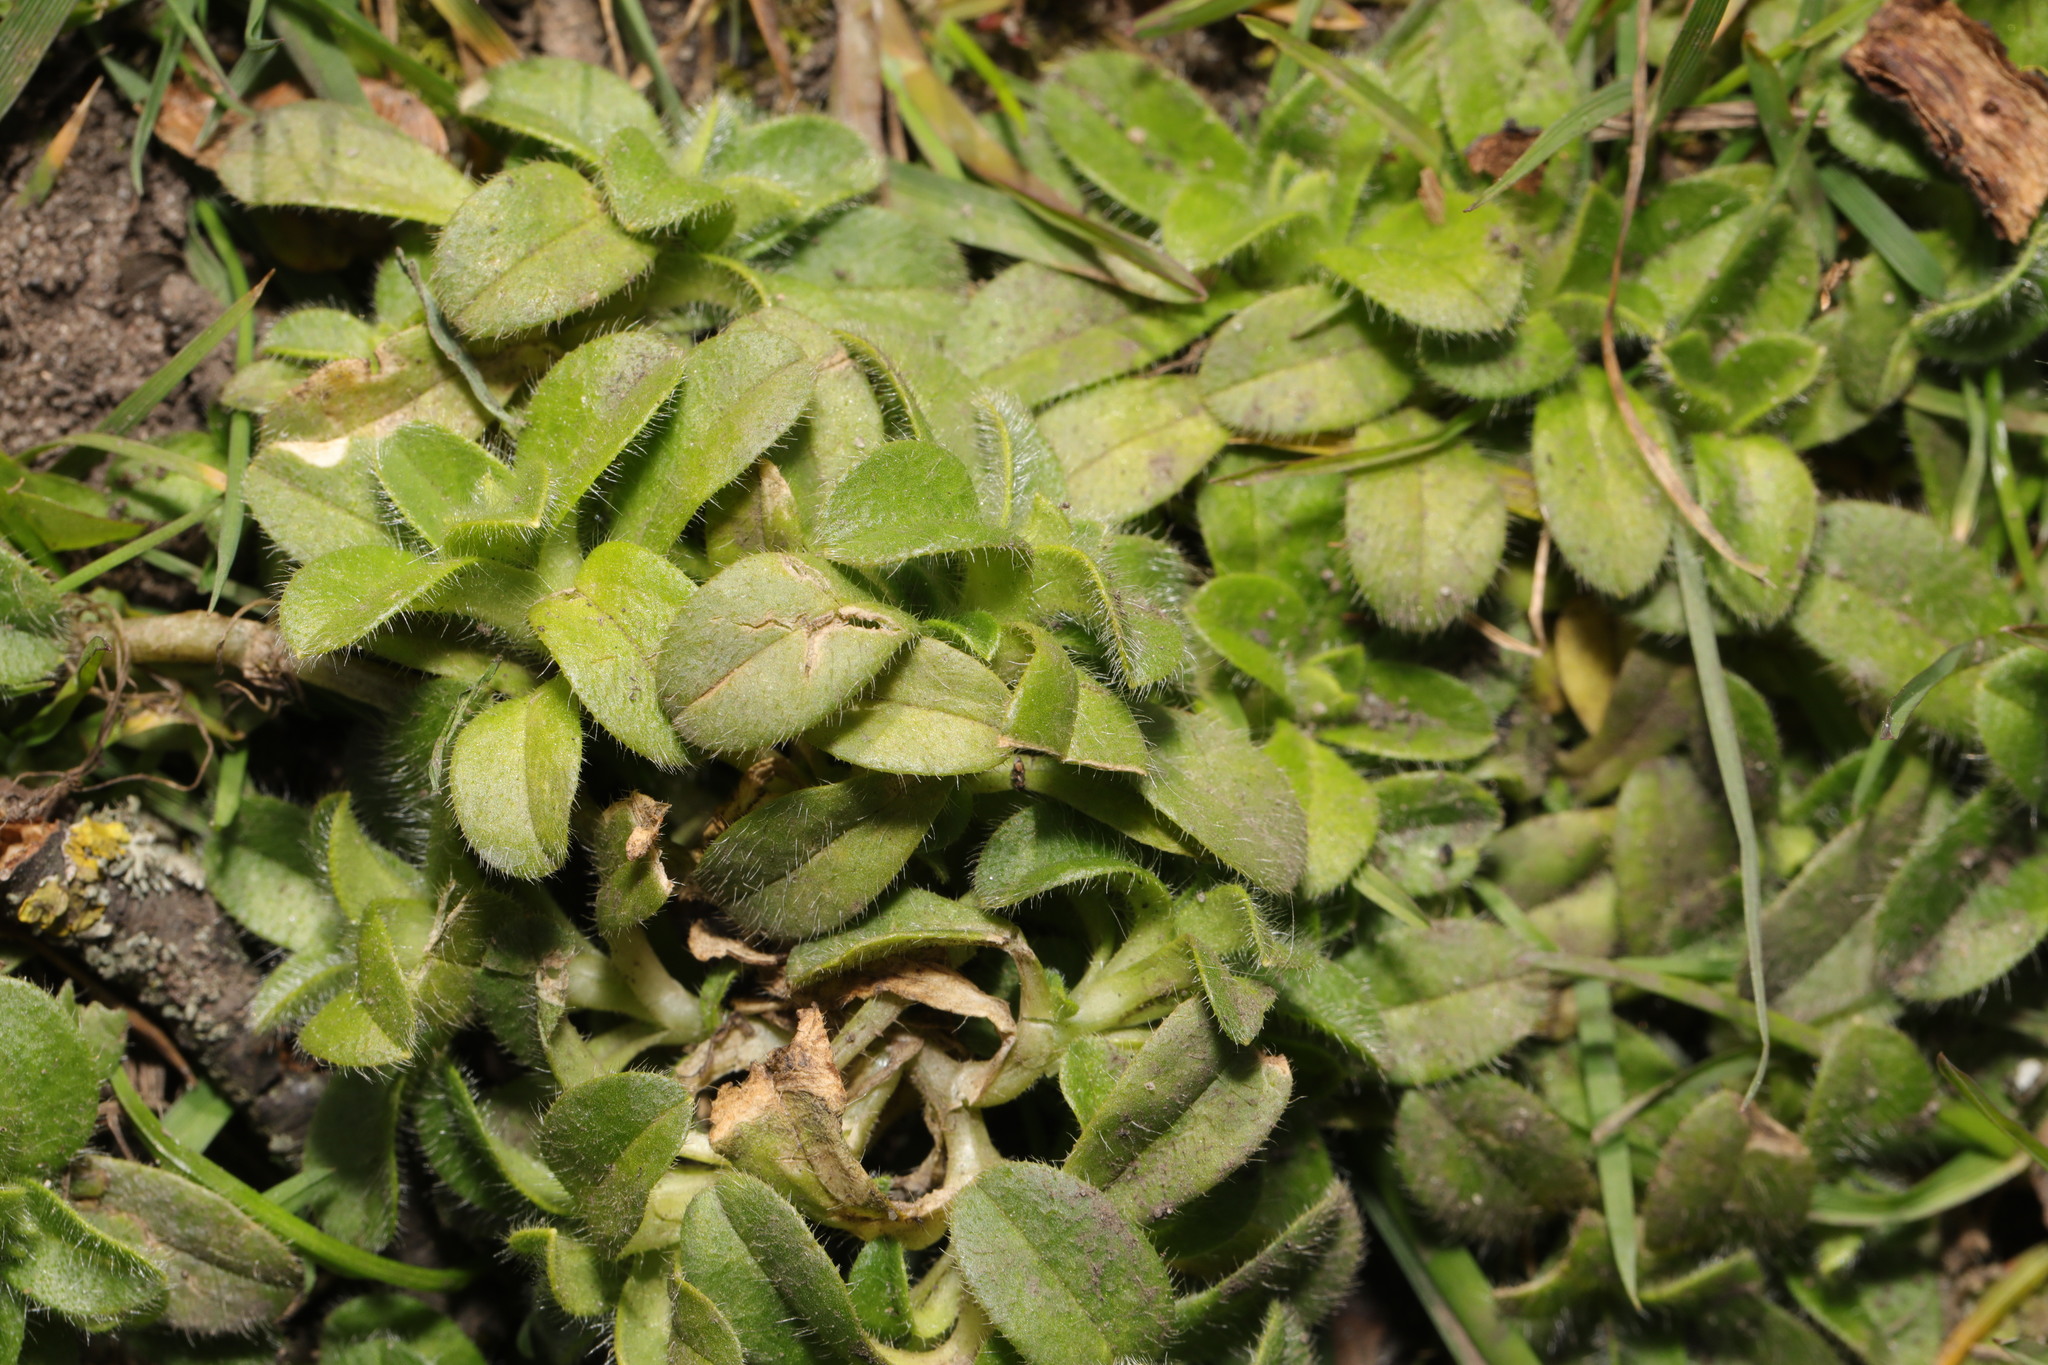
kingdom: Plantae
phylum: Tracheophyta
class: Magnoliopsida
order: Caryophyllales
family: Caryophyllaceae
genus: Cerastium
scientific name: Cerastium fontanum
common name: Common mouse-ear
